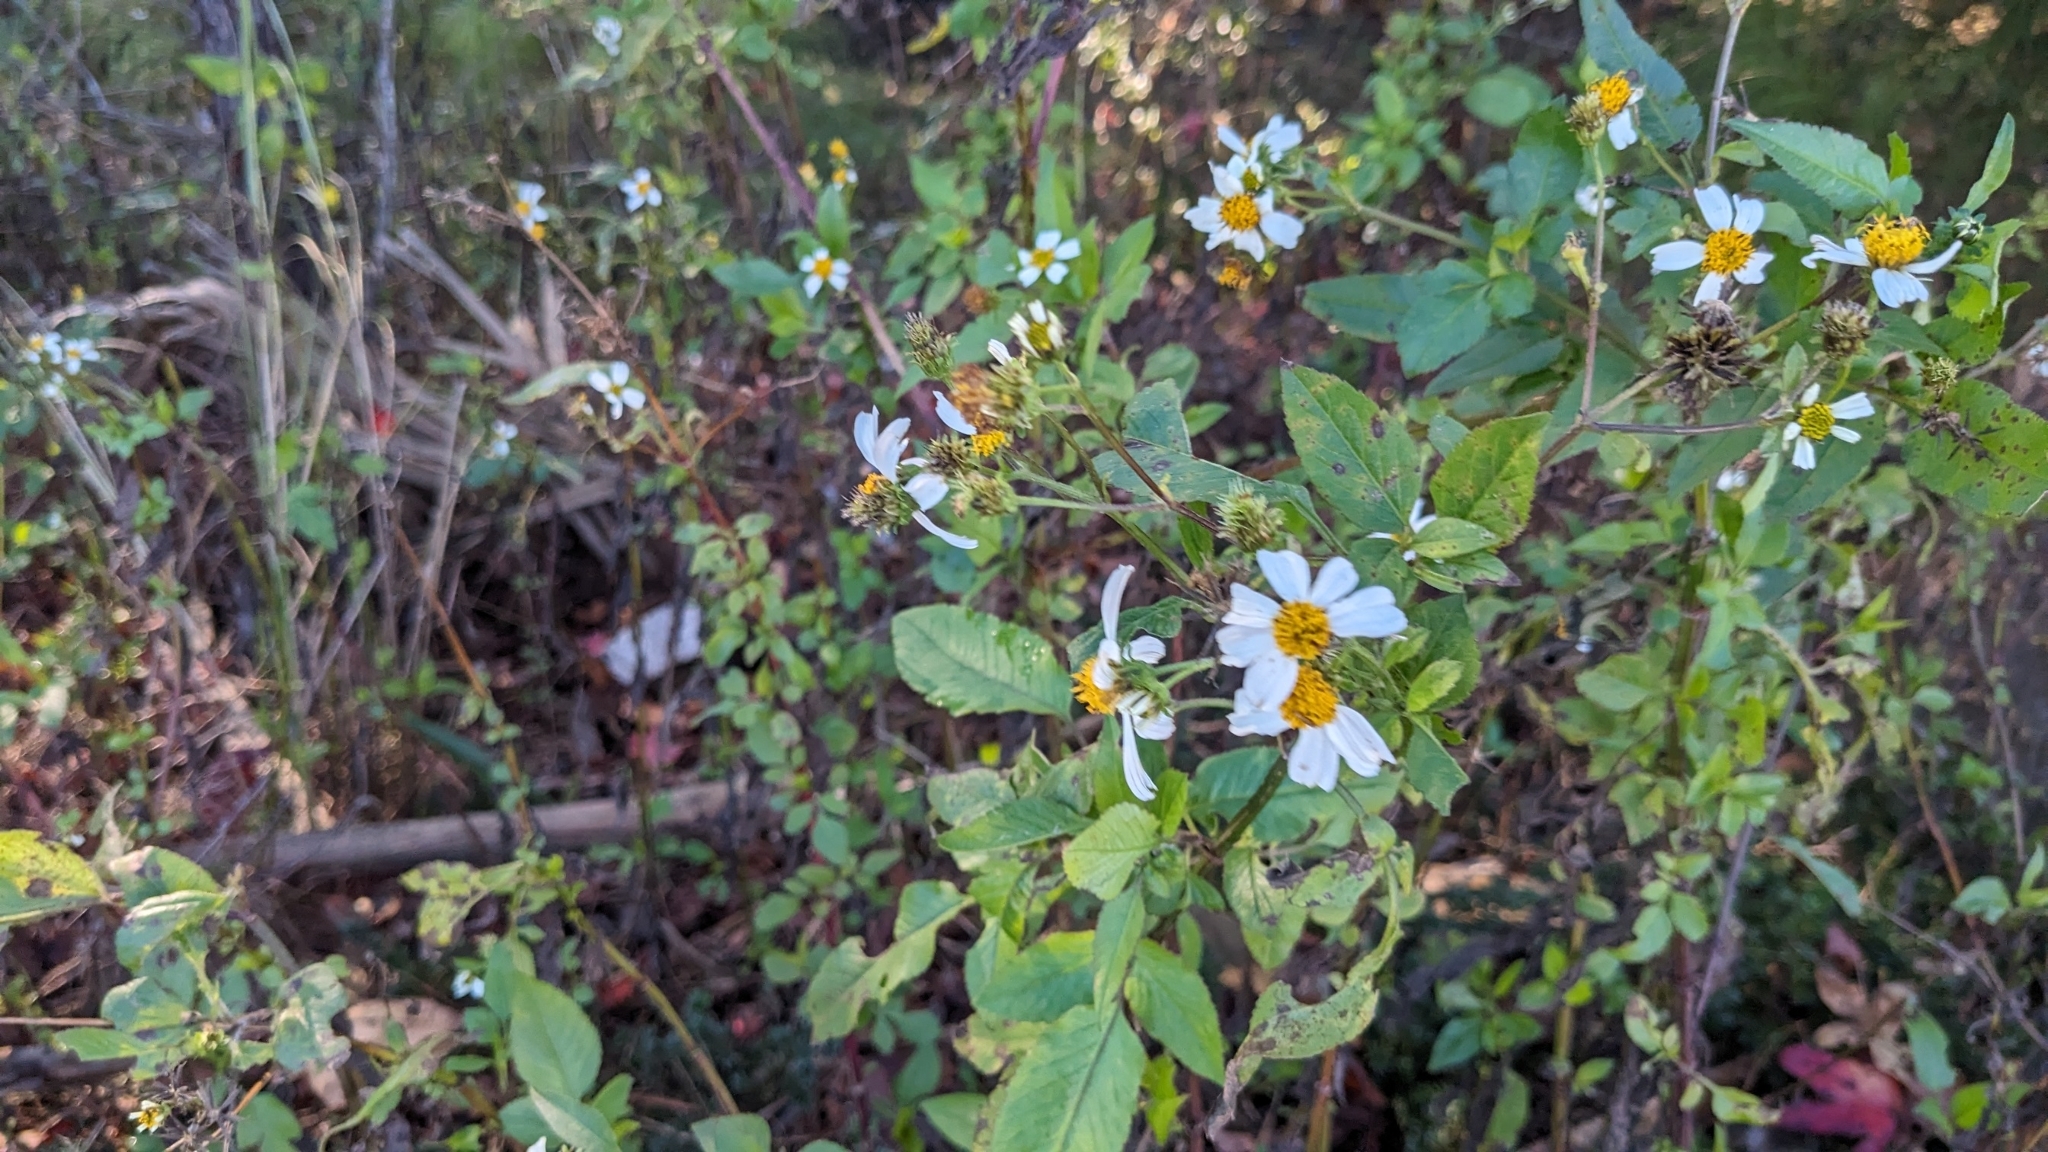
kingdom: Plantae
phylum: Tracheophyta
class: Magnoliopsida
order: Asterales
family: Asteraceae
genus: Bidens
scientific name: Bidens alba
